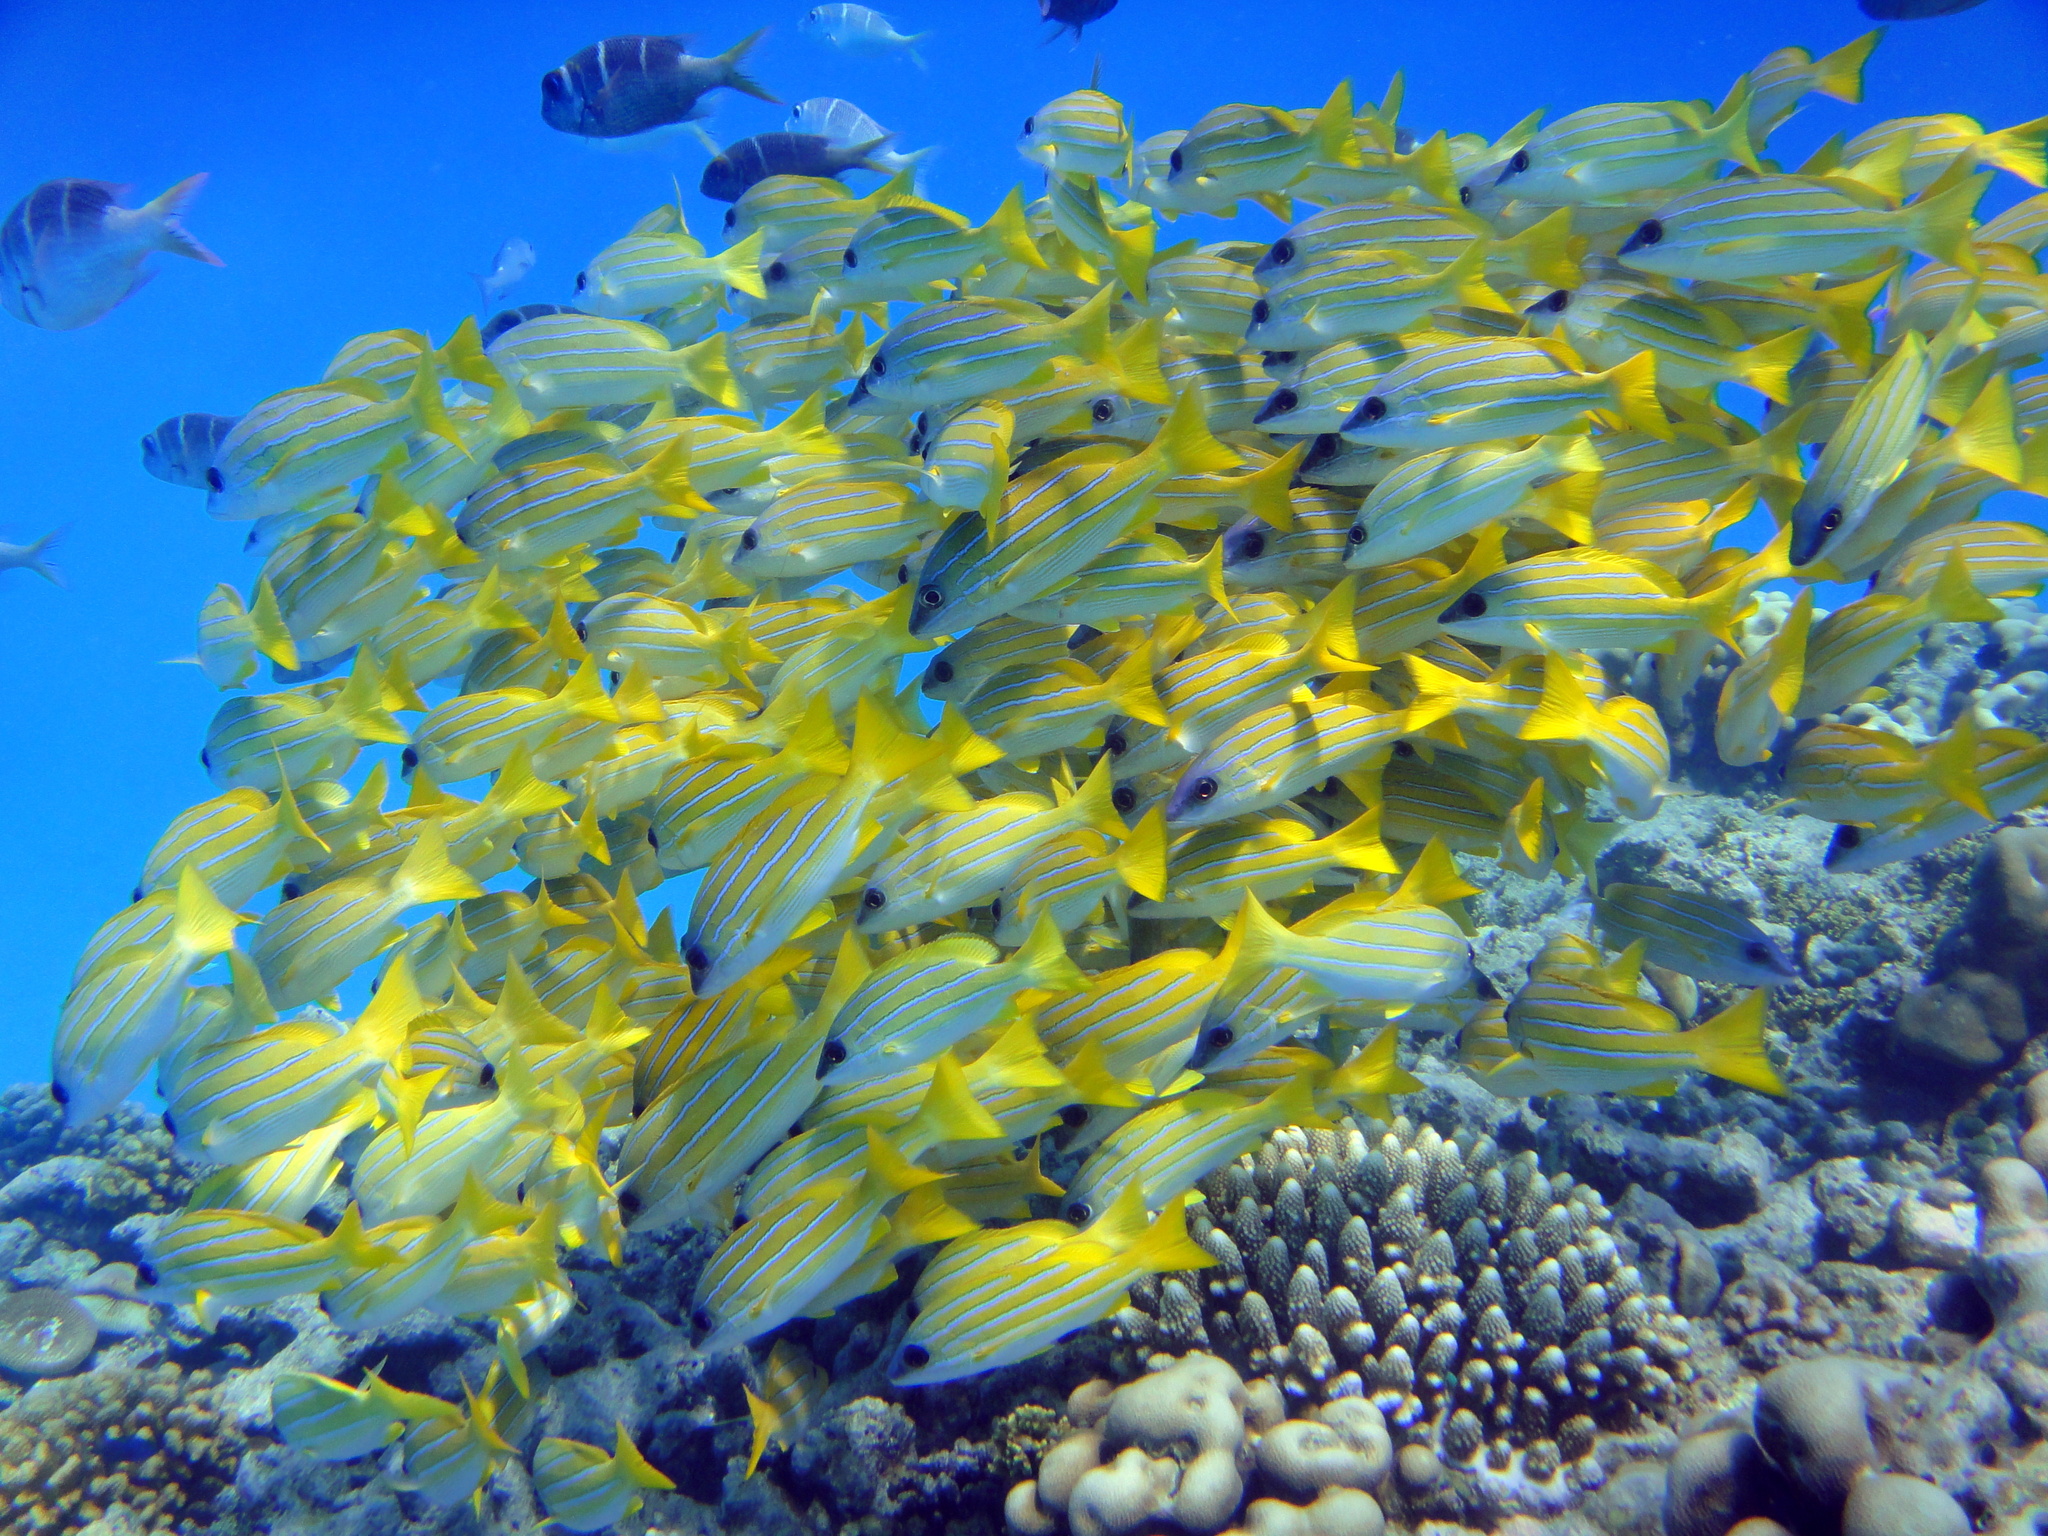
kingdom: Animalia
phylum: Chordata
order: Perciformes
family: Lutjanidae
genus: Lutjanus
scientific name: Lutjanus kasmira
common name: Common bluestripe snapper
